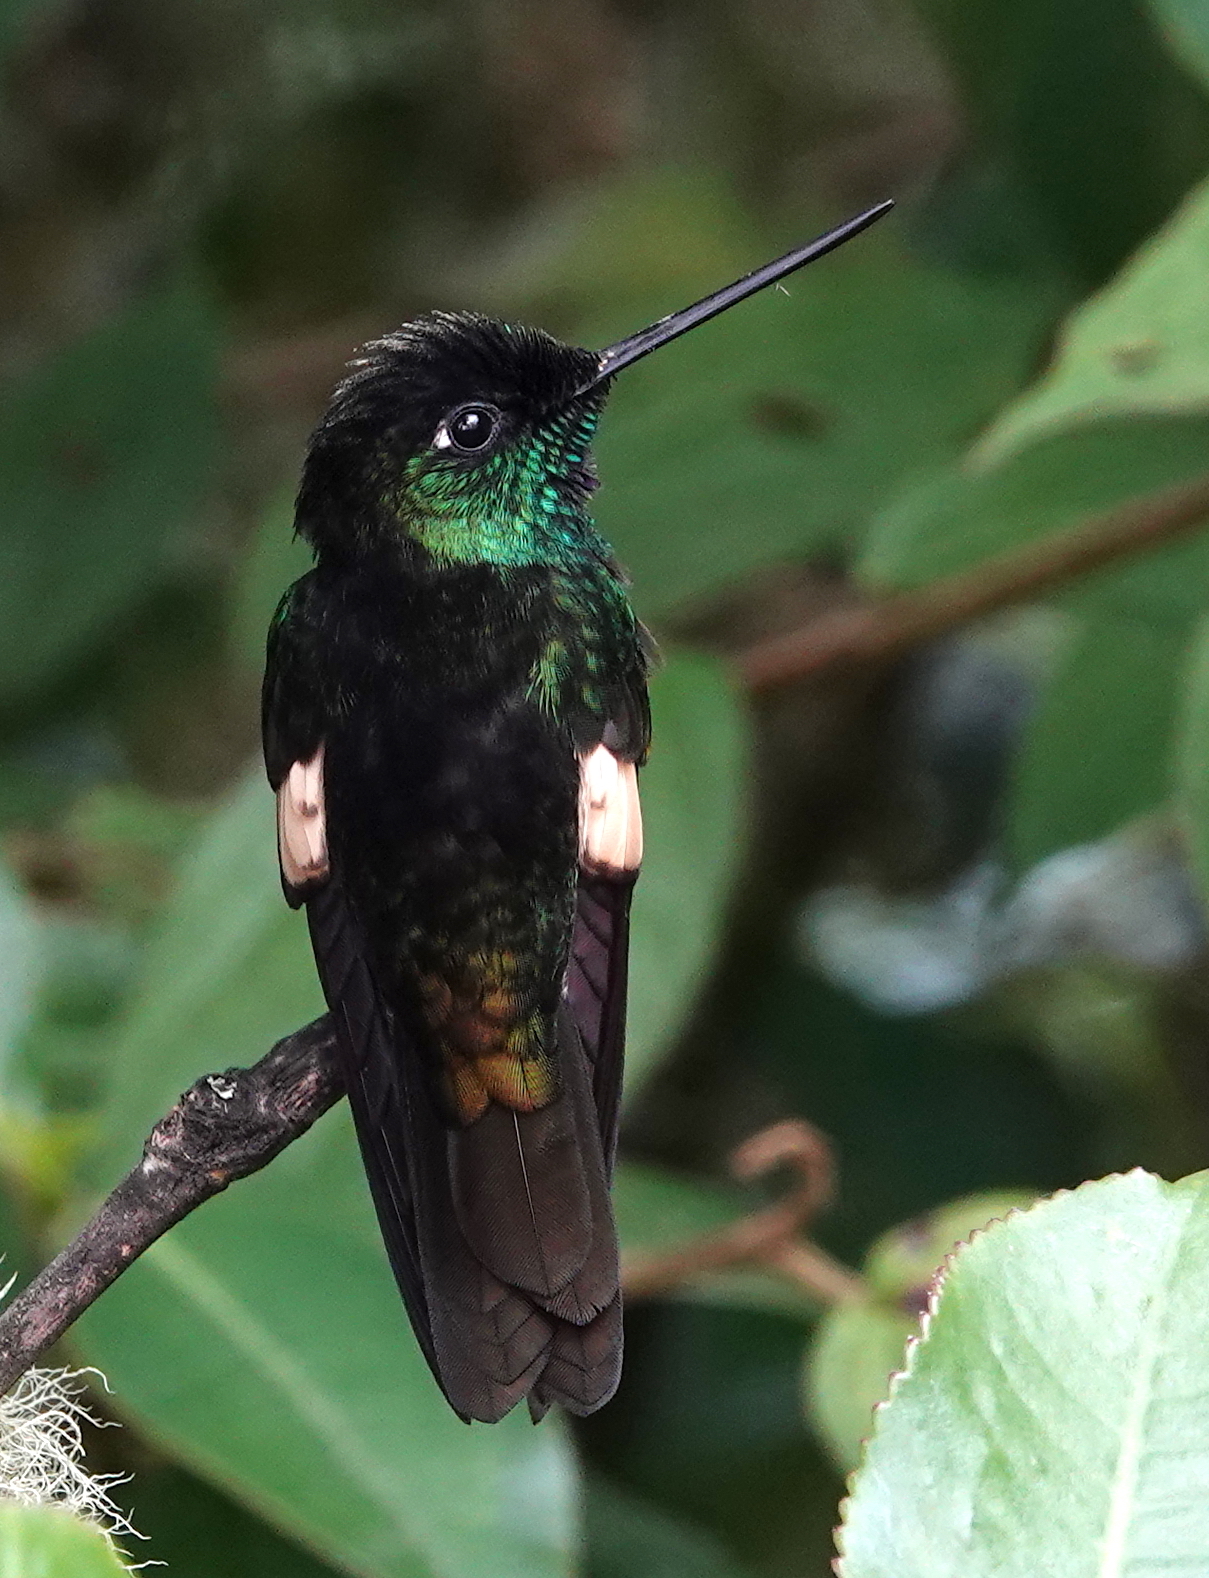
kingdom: Animalia
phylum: Chordata
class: Aves
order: Apodiformes
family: Trochilidae
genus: Coeligena
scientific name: Coeligena lutetiae
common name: Buff-winged starfrontlet
